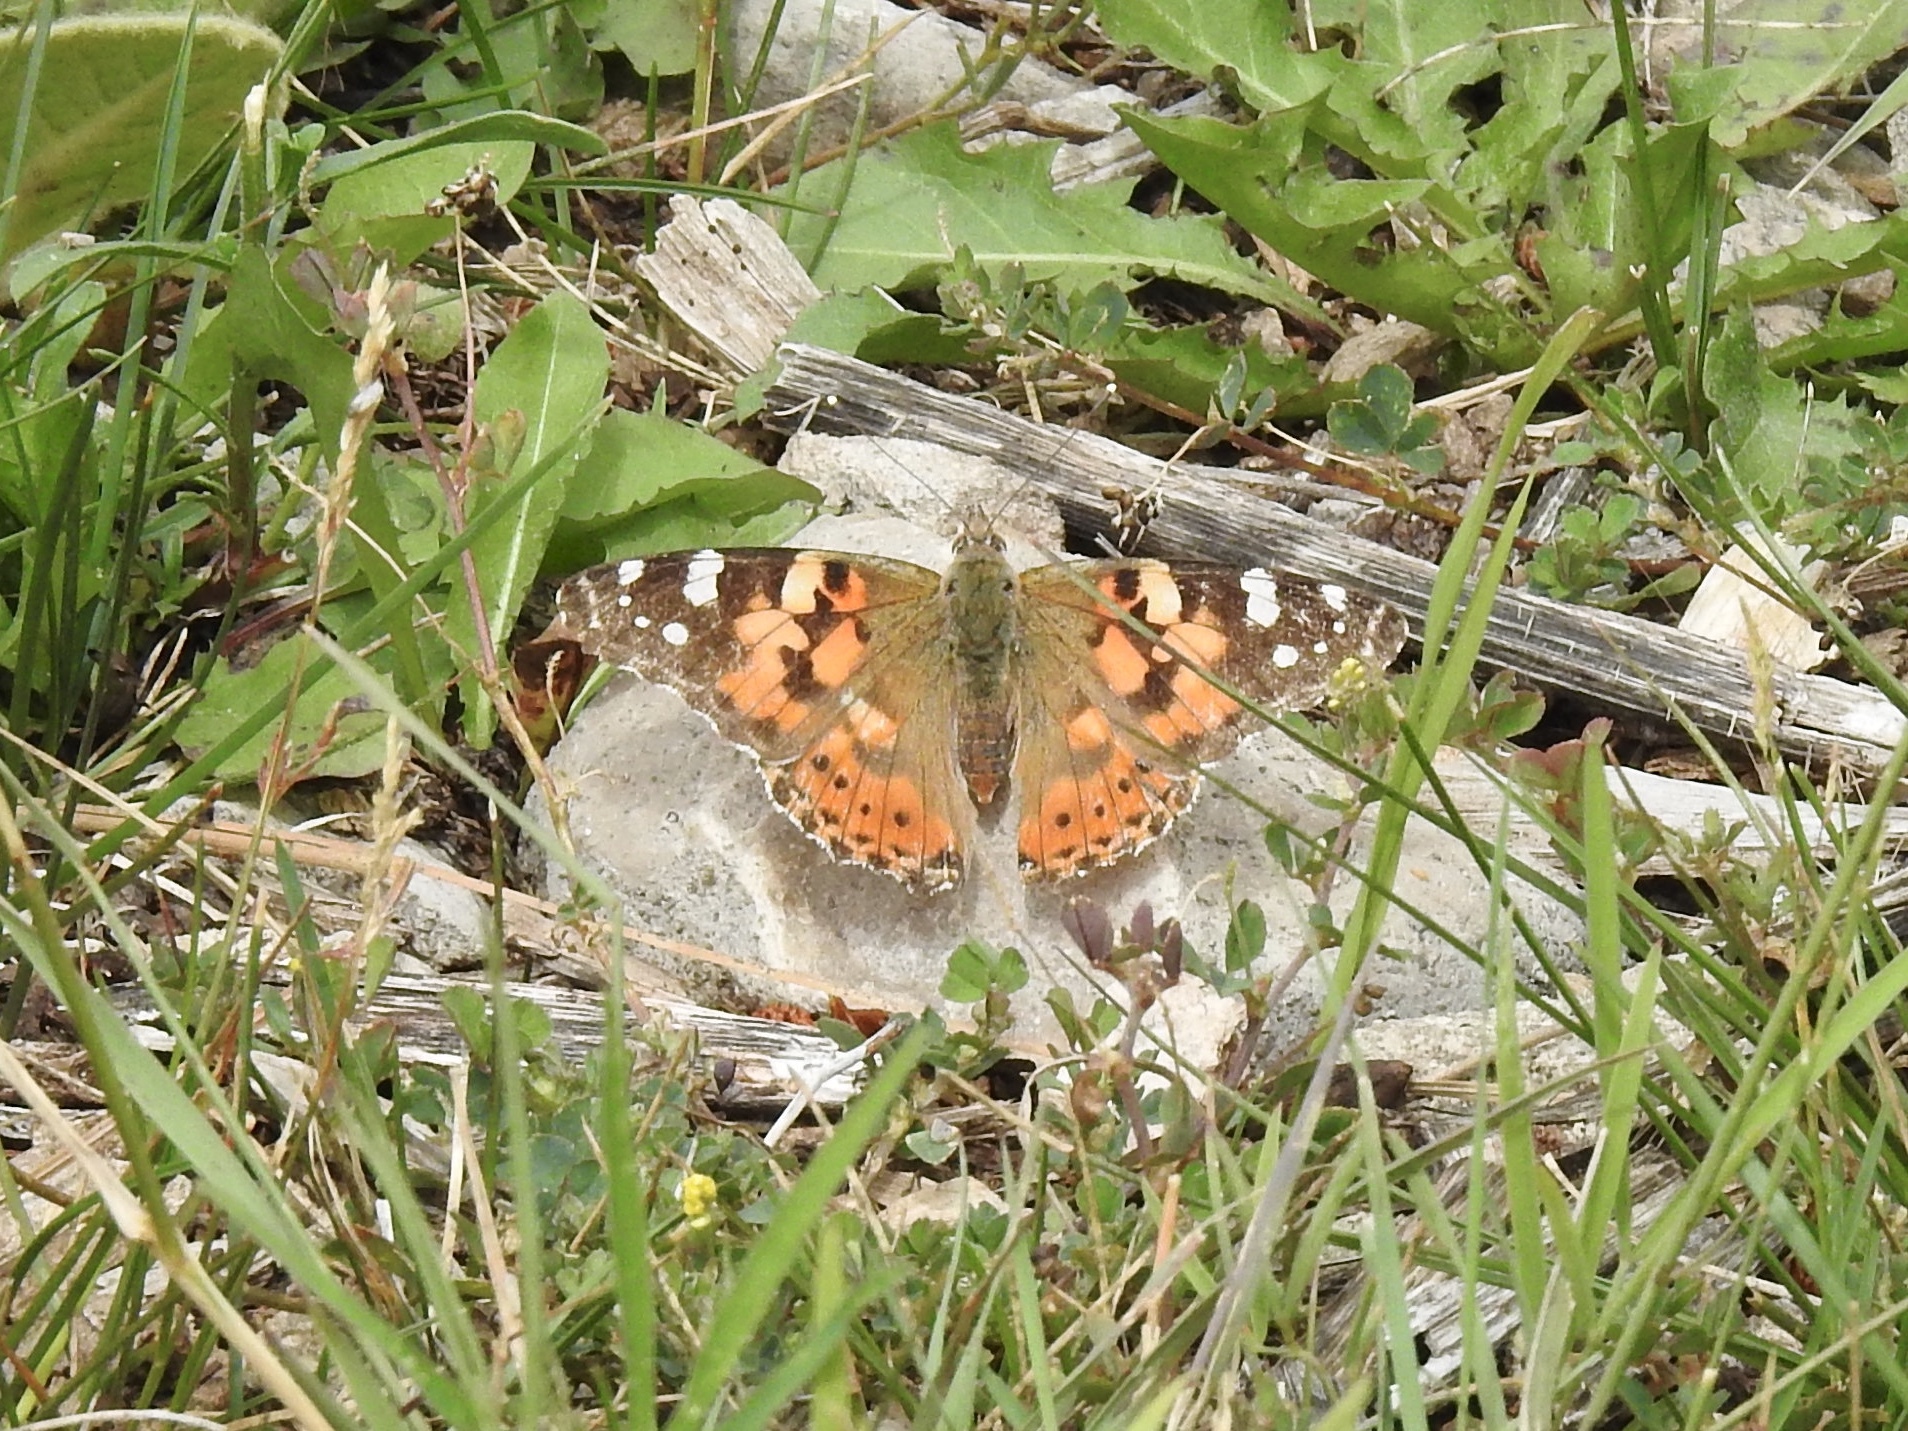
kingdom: Animalia
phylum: Arthropoda
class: Insecta
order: Lepidoptera
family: Nymphalidae
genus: Vanessa
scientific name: Vanessa cardui
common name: Painted lady
